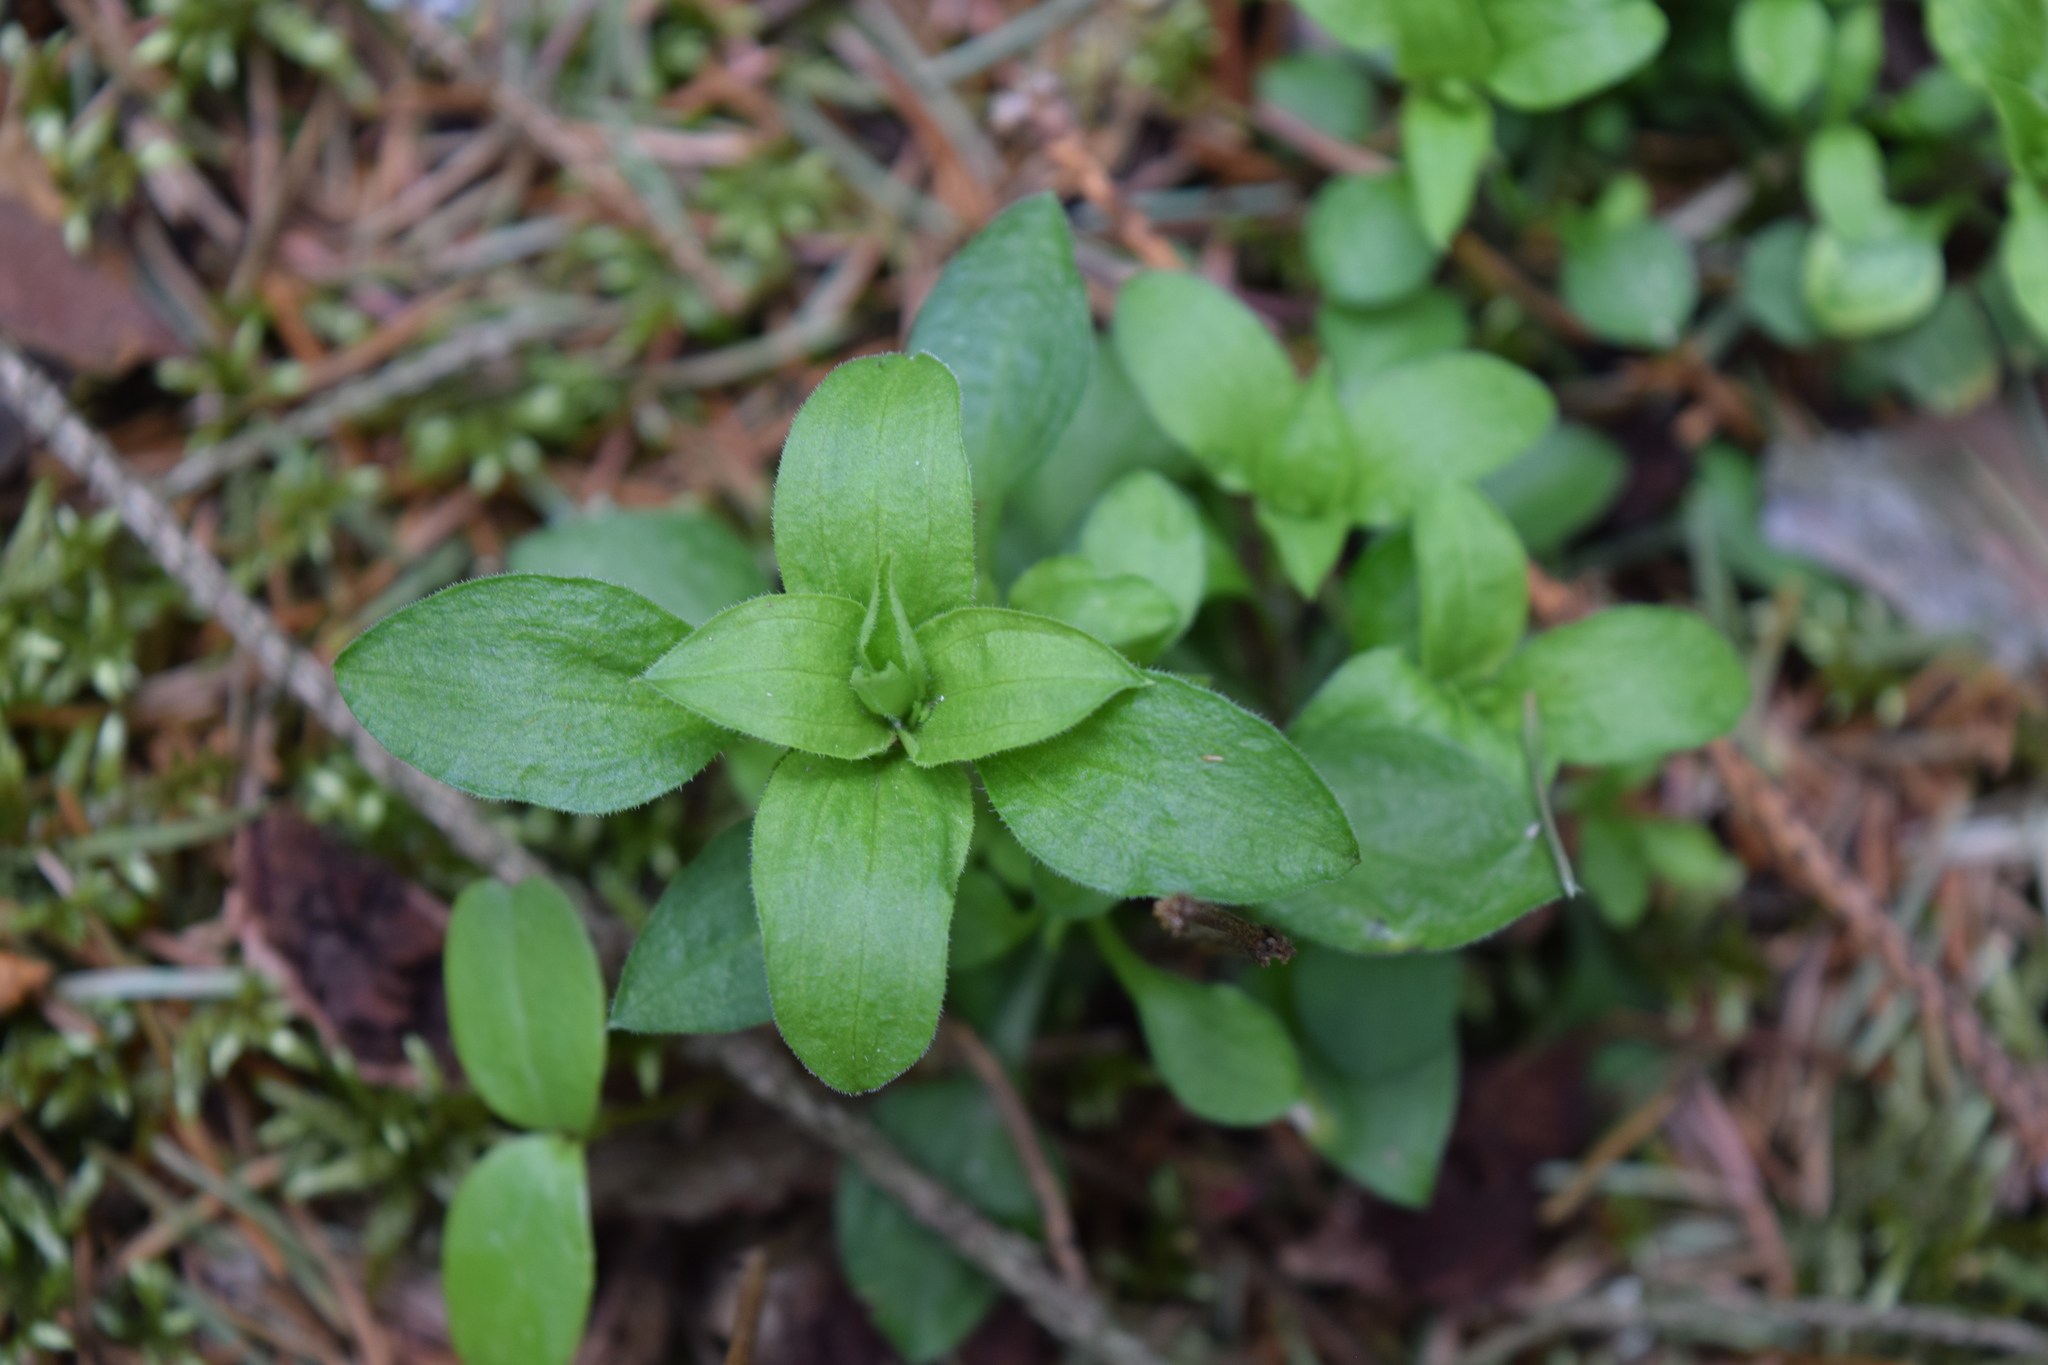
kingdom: Plantae
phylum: Tracheophyta
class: Magnoliopsida
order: Caryophyllales
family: Caryophyllaceae
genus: Moehringia
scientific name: Moehringia trinervia
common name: Three-nerved sandwort
